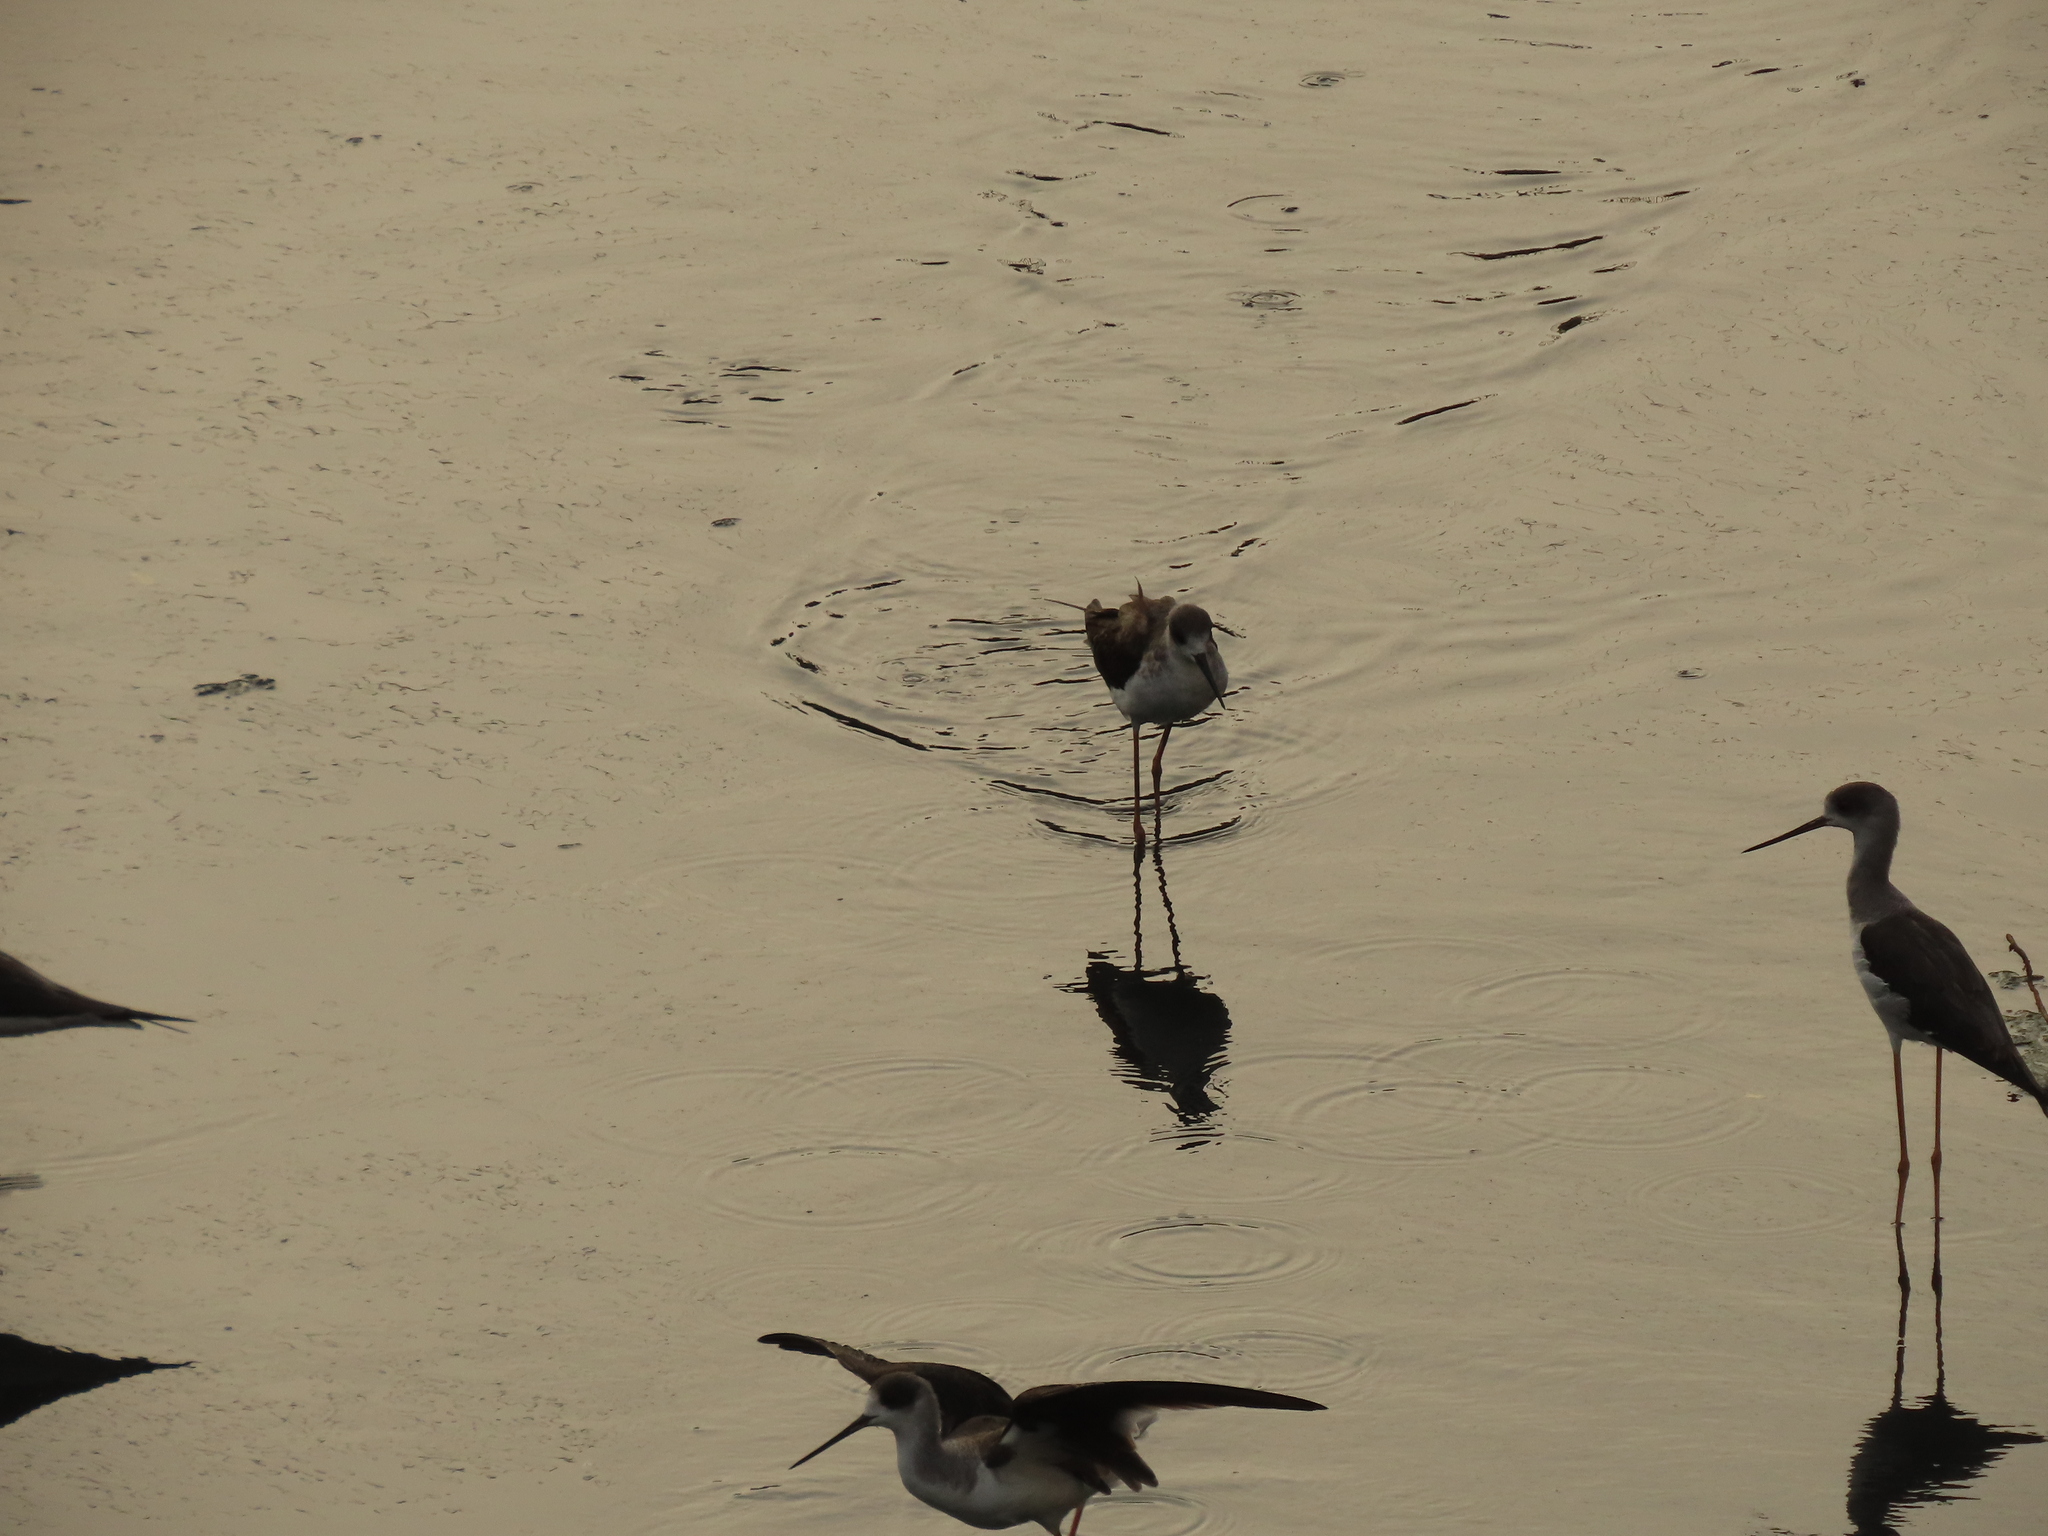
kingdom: Animalia
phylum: Chordata
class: Aves
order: Charadriiformes
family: Recurvirostridae
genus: Himantopus
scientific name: Himantopus himantopus
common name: Black-winged stilt
